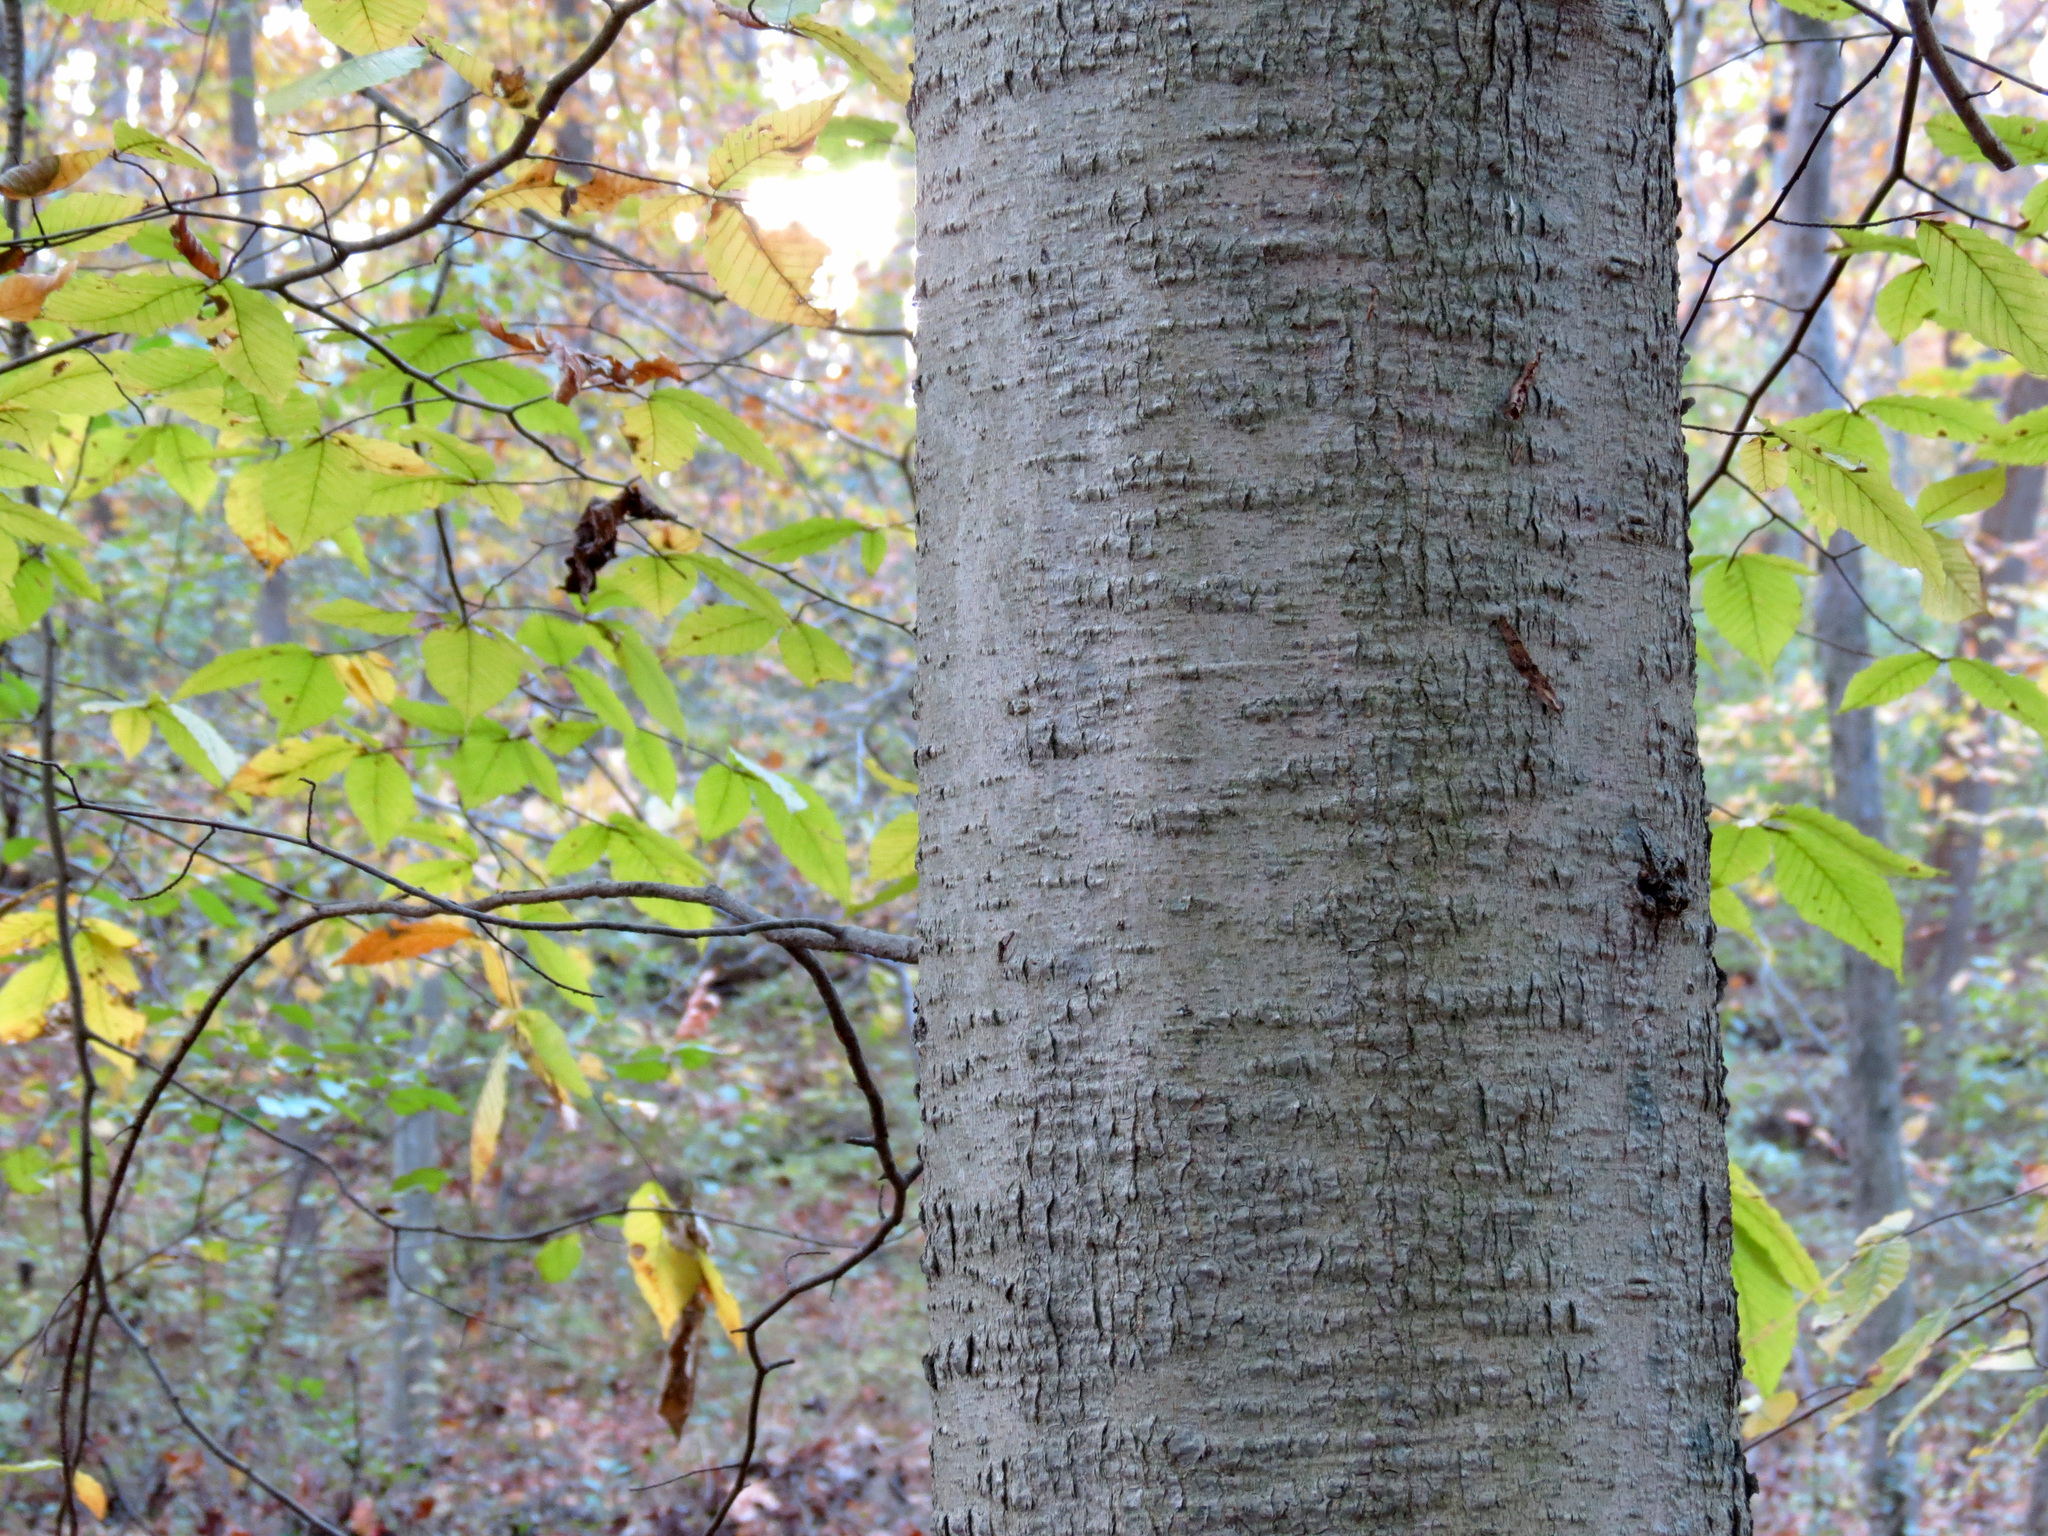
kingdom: Plantae
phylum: Tracheophyta
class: Magnoliopsida
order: Fagales
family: Fagaceae
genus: Fagus
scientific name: Fagus grandifolia
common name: American beech
